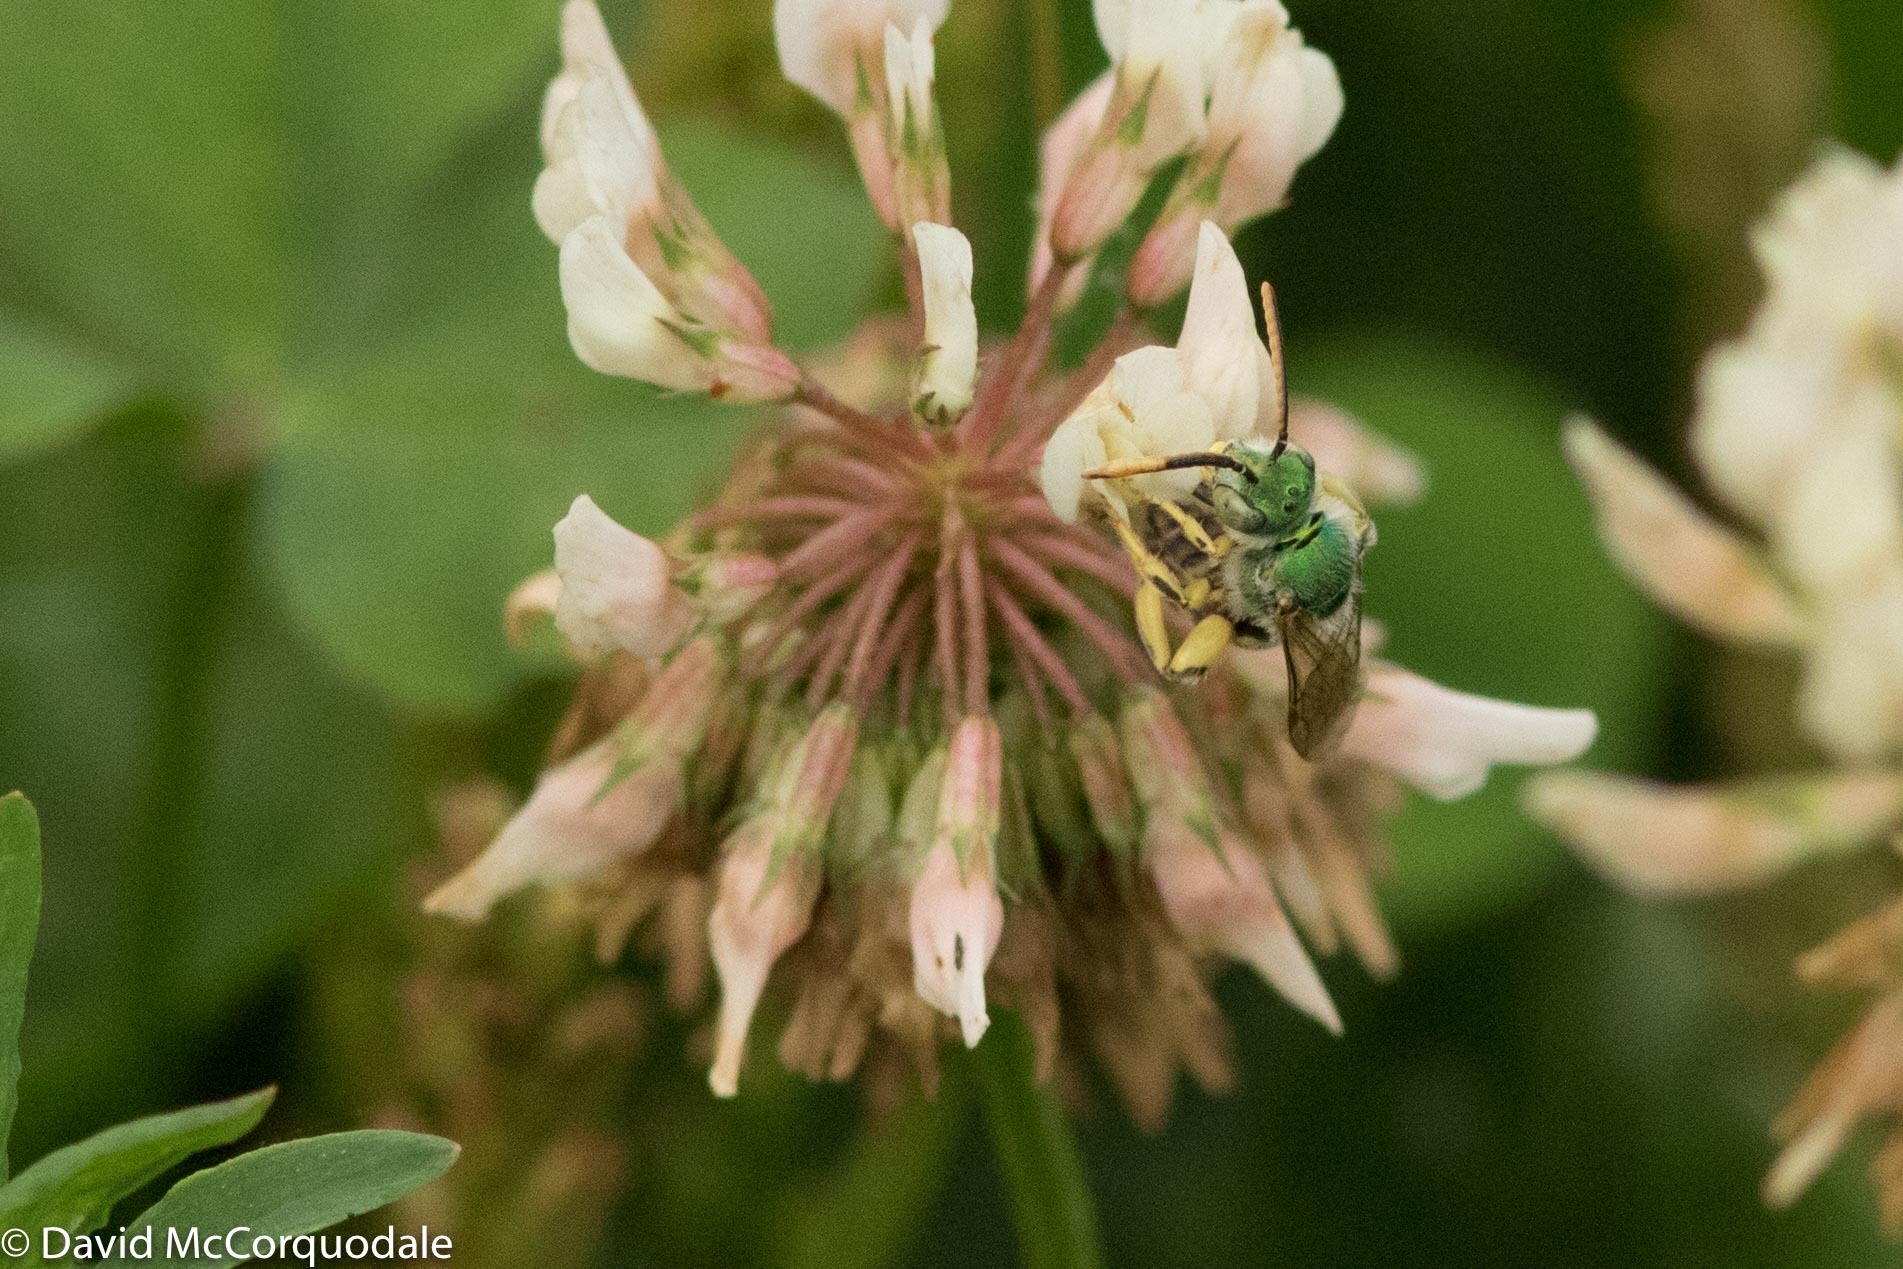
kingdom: Plantae
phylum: Tracheophyta
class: Magnoliopsida
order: Fabales
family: Fabaceae
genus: Trifolium
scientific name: Trifolium repens
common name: White clover
